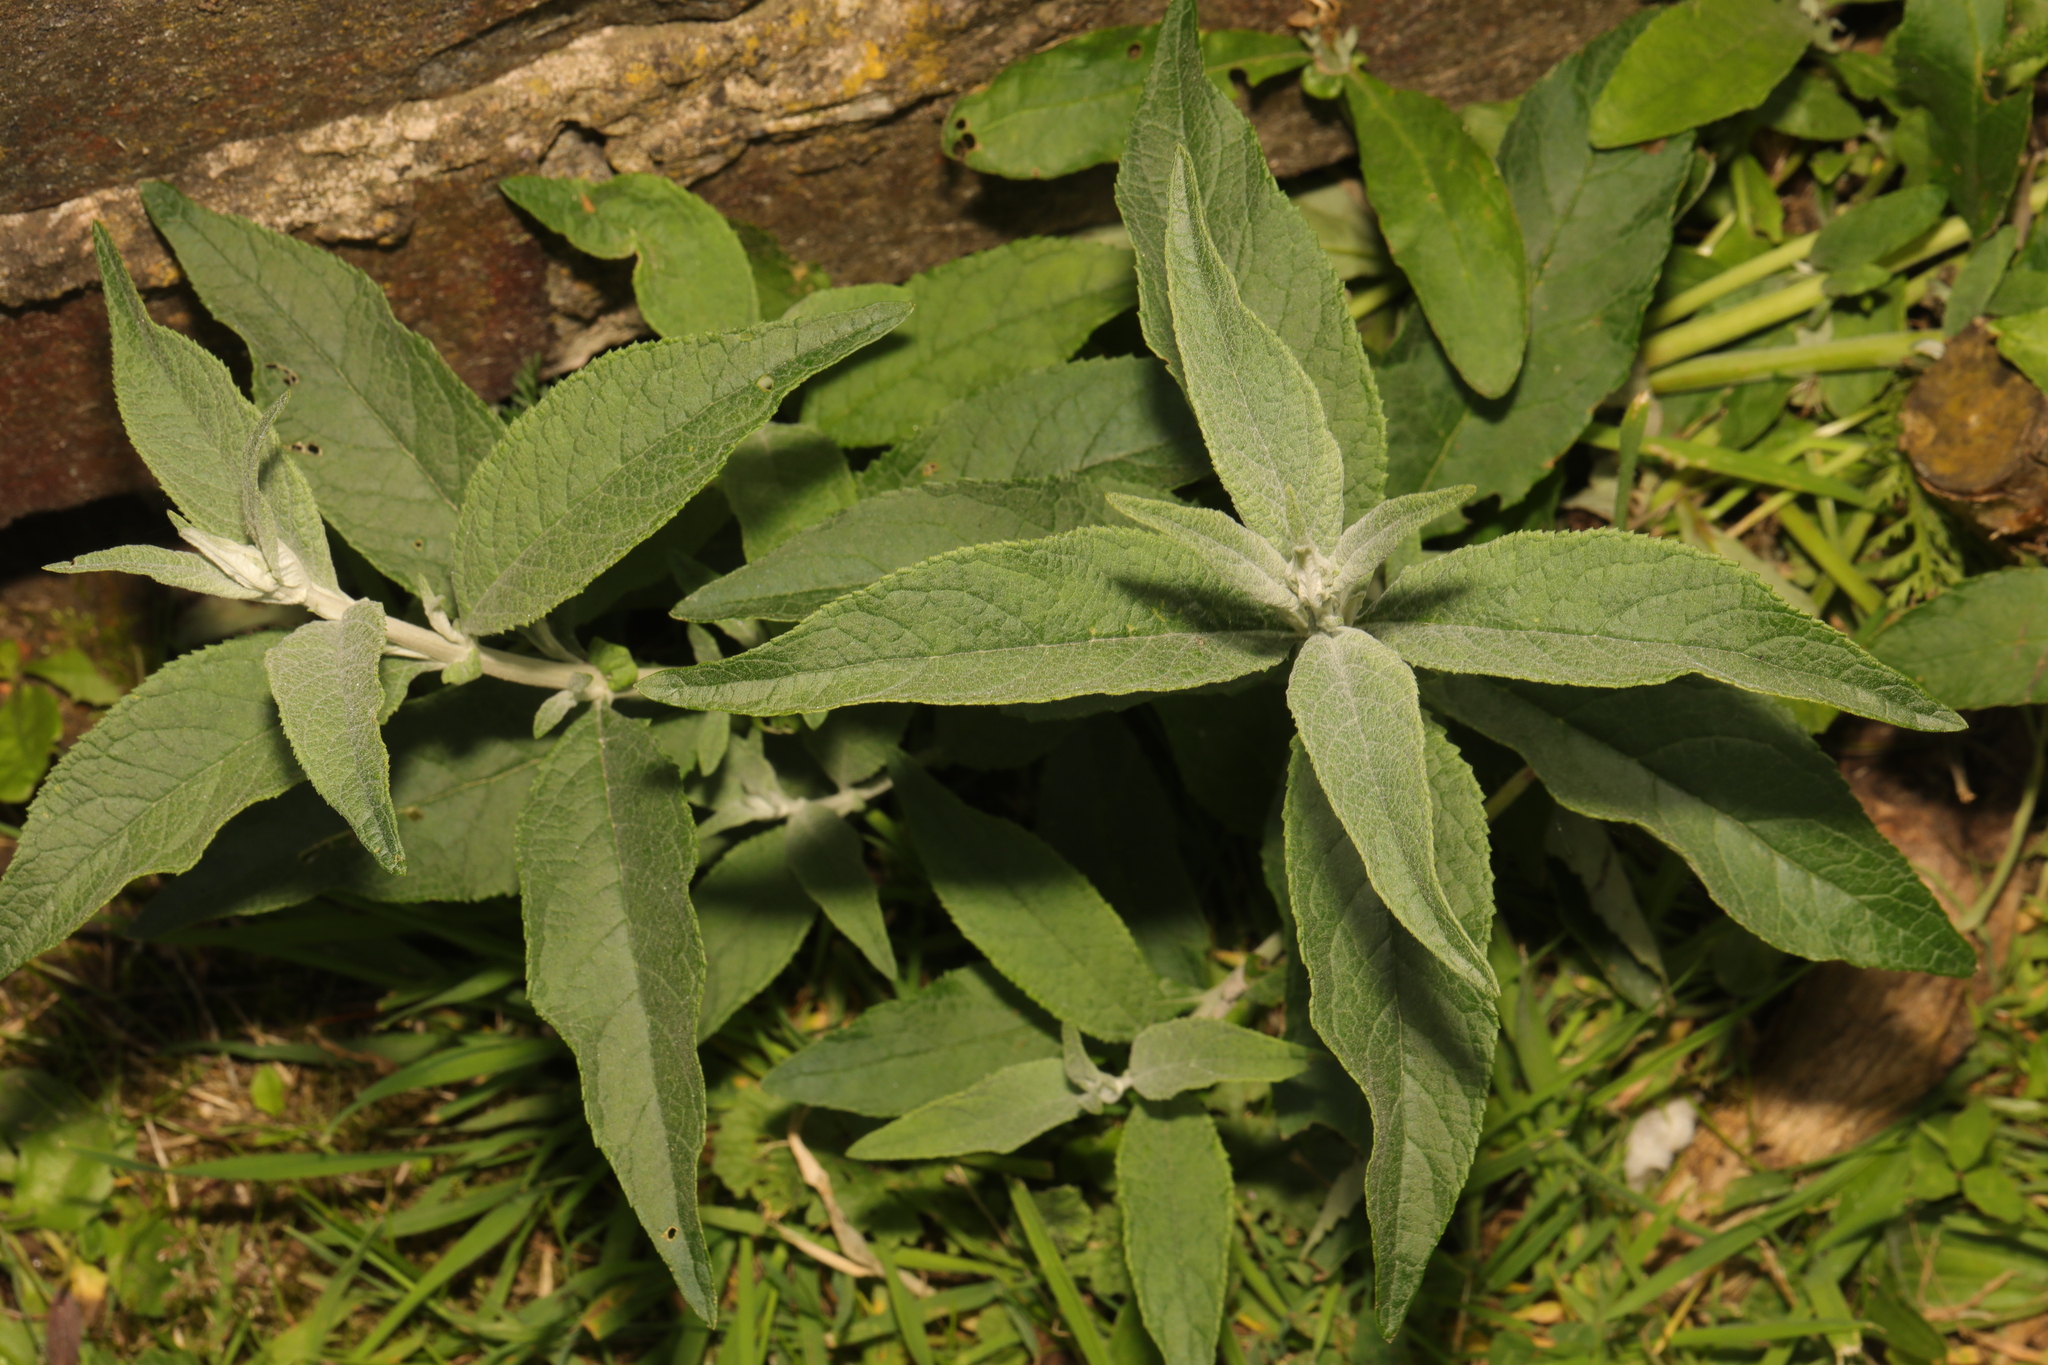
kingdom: Plantae
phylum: Tracheophyta
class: Magnoliopsida
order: Lamiales
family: Scrophulariaceae
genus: Buddleja
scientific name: Buddleja davidii
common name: Butterfly-bush
